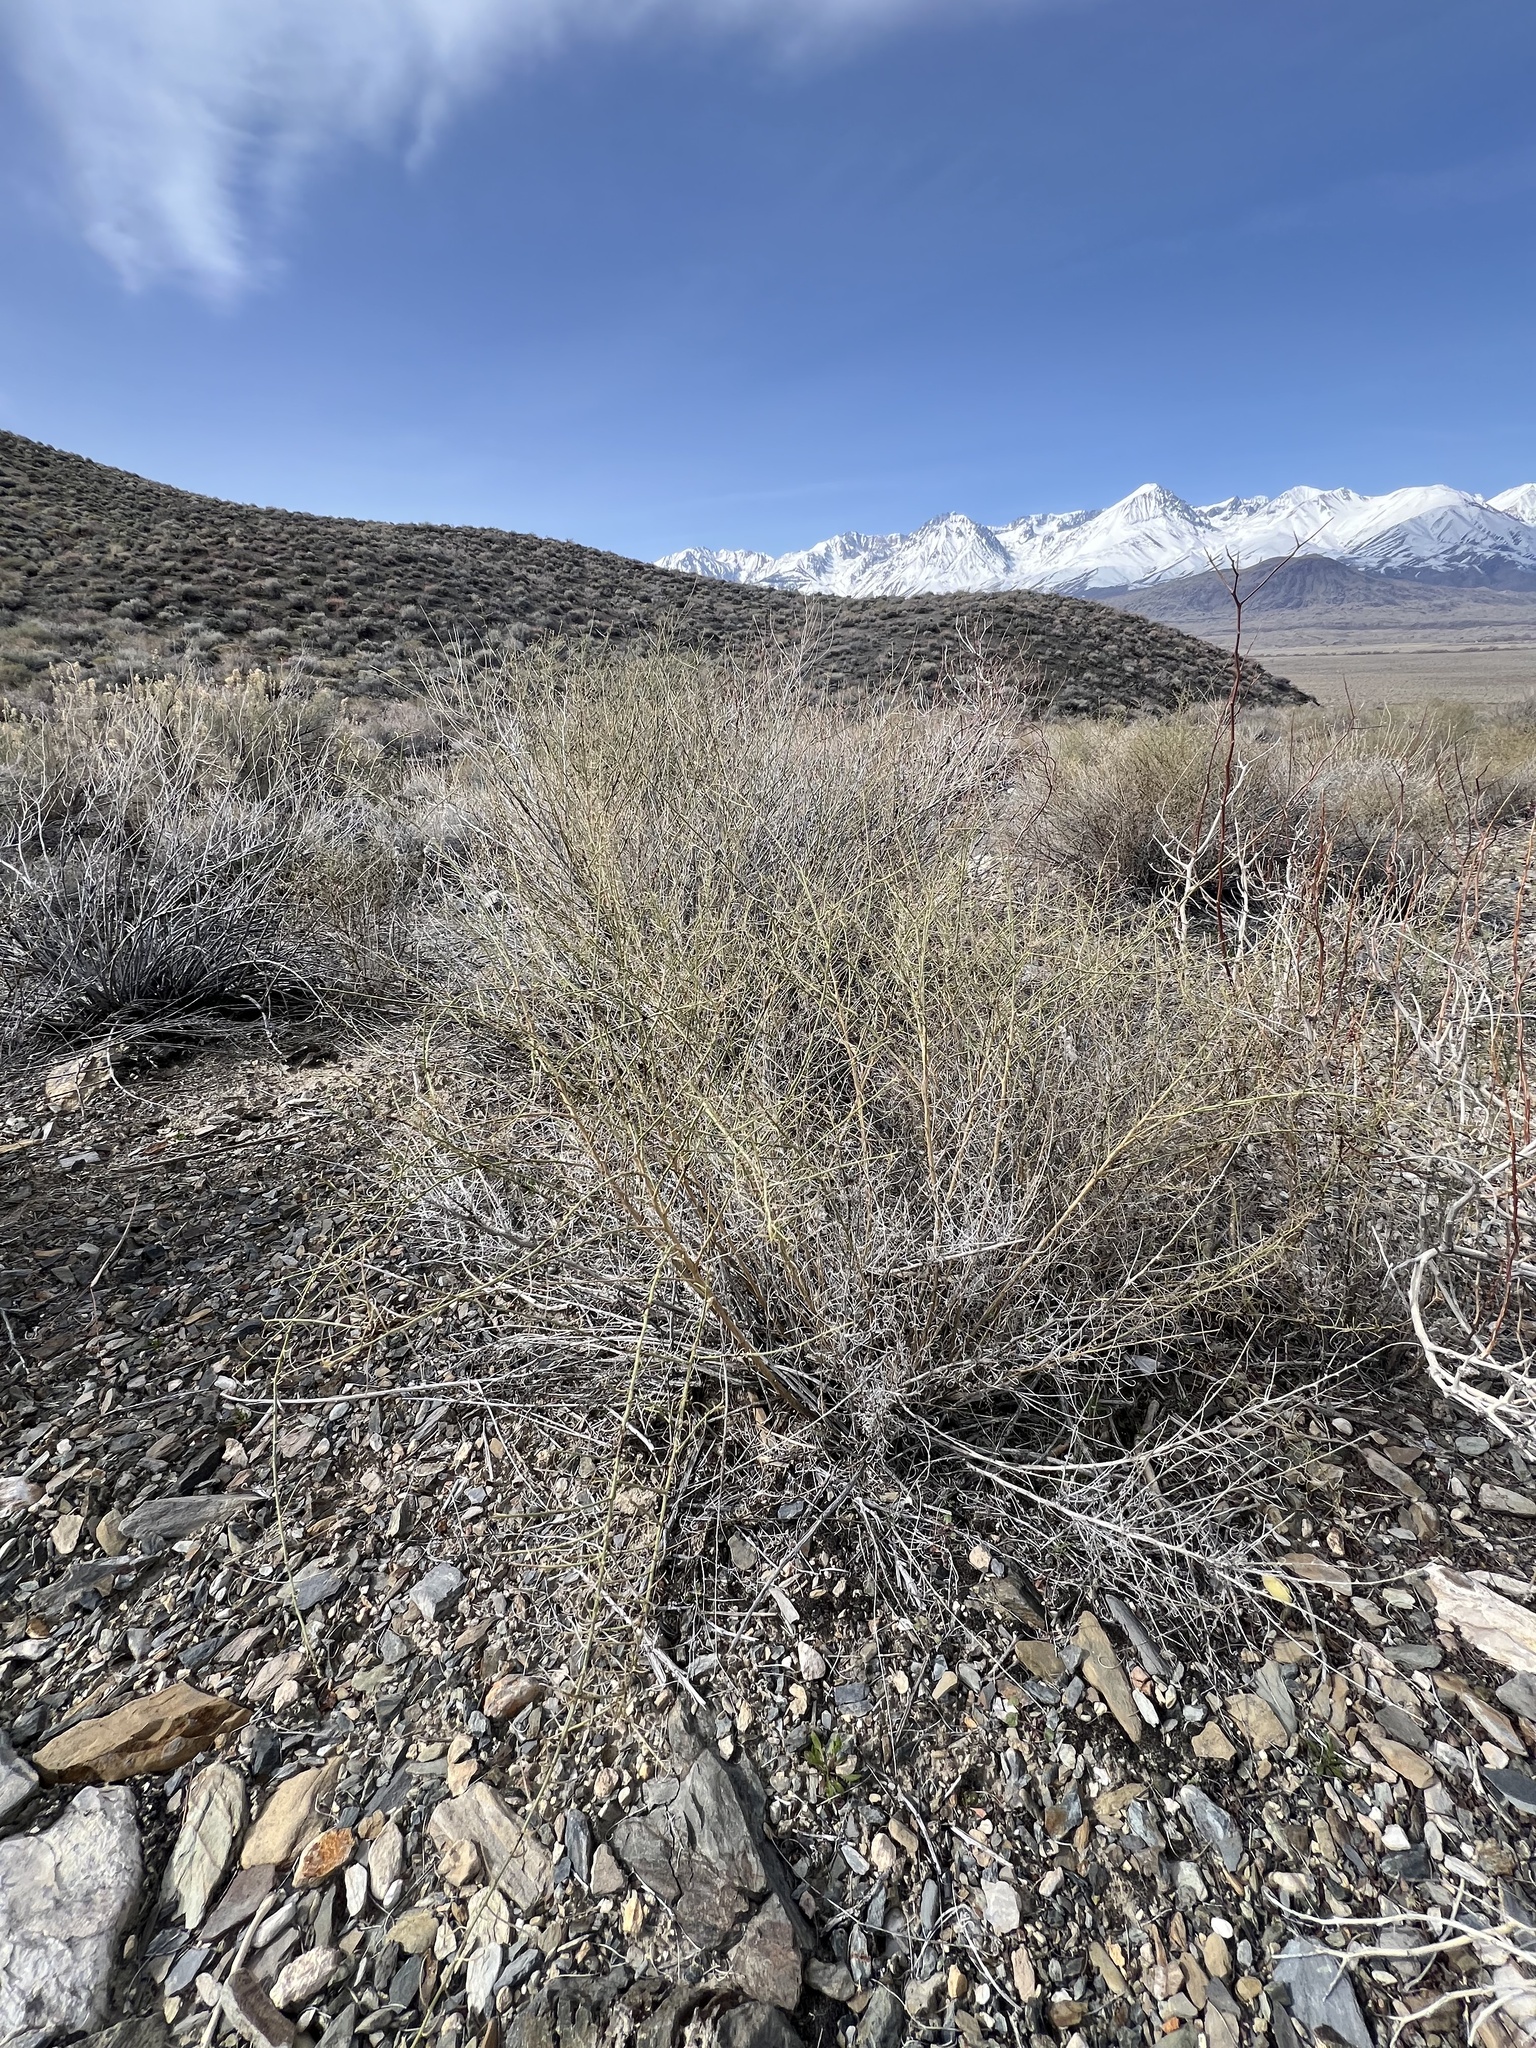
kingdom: Plantae
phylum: Tracheophyta
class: Magnoliopsida
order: Asterales
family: Asteraceae
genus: Ambrosia
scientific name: Ambrosia salsola
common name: Burrobrush
